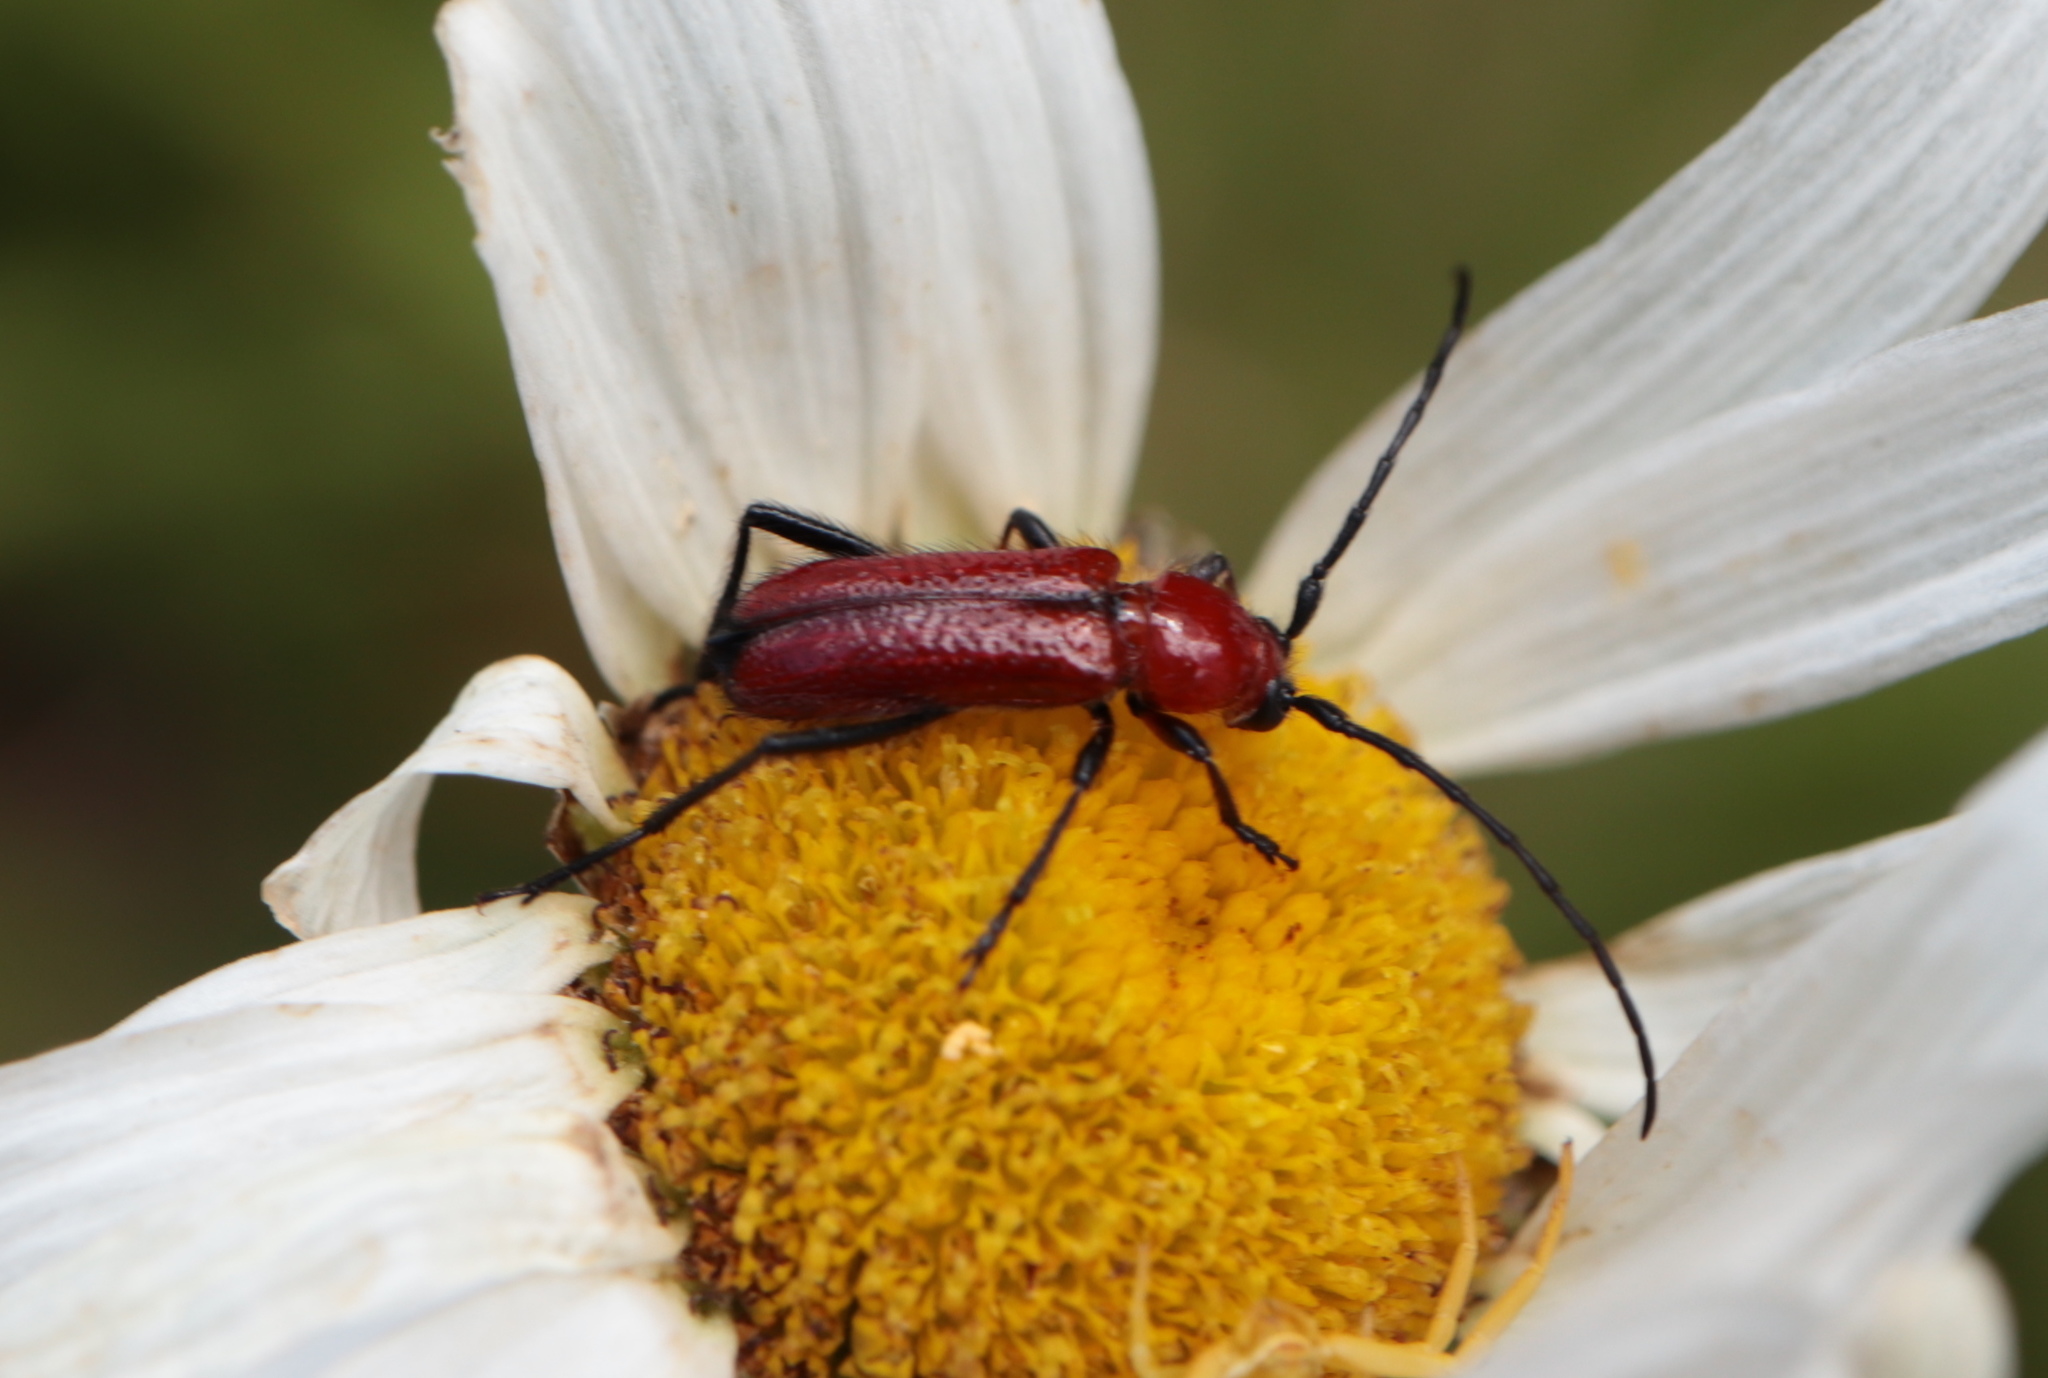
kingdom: Animalia
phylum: Arthropoda
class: Insecta
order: Coleoptera
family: Cerambycidae
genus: Batyle
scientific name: Batyle suturalis
